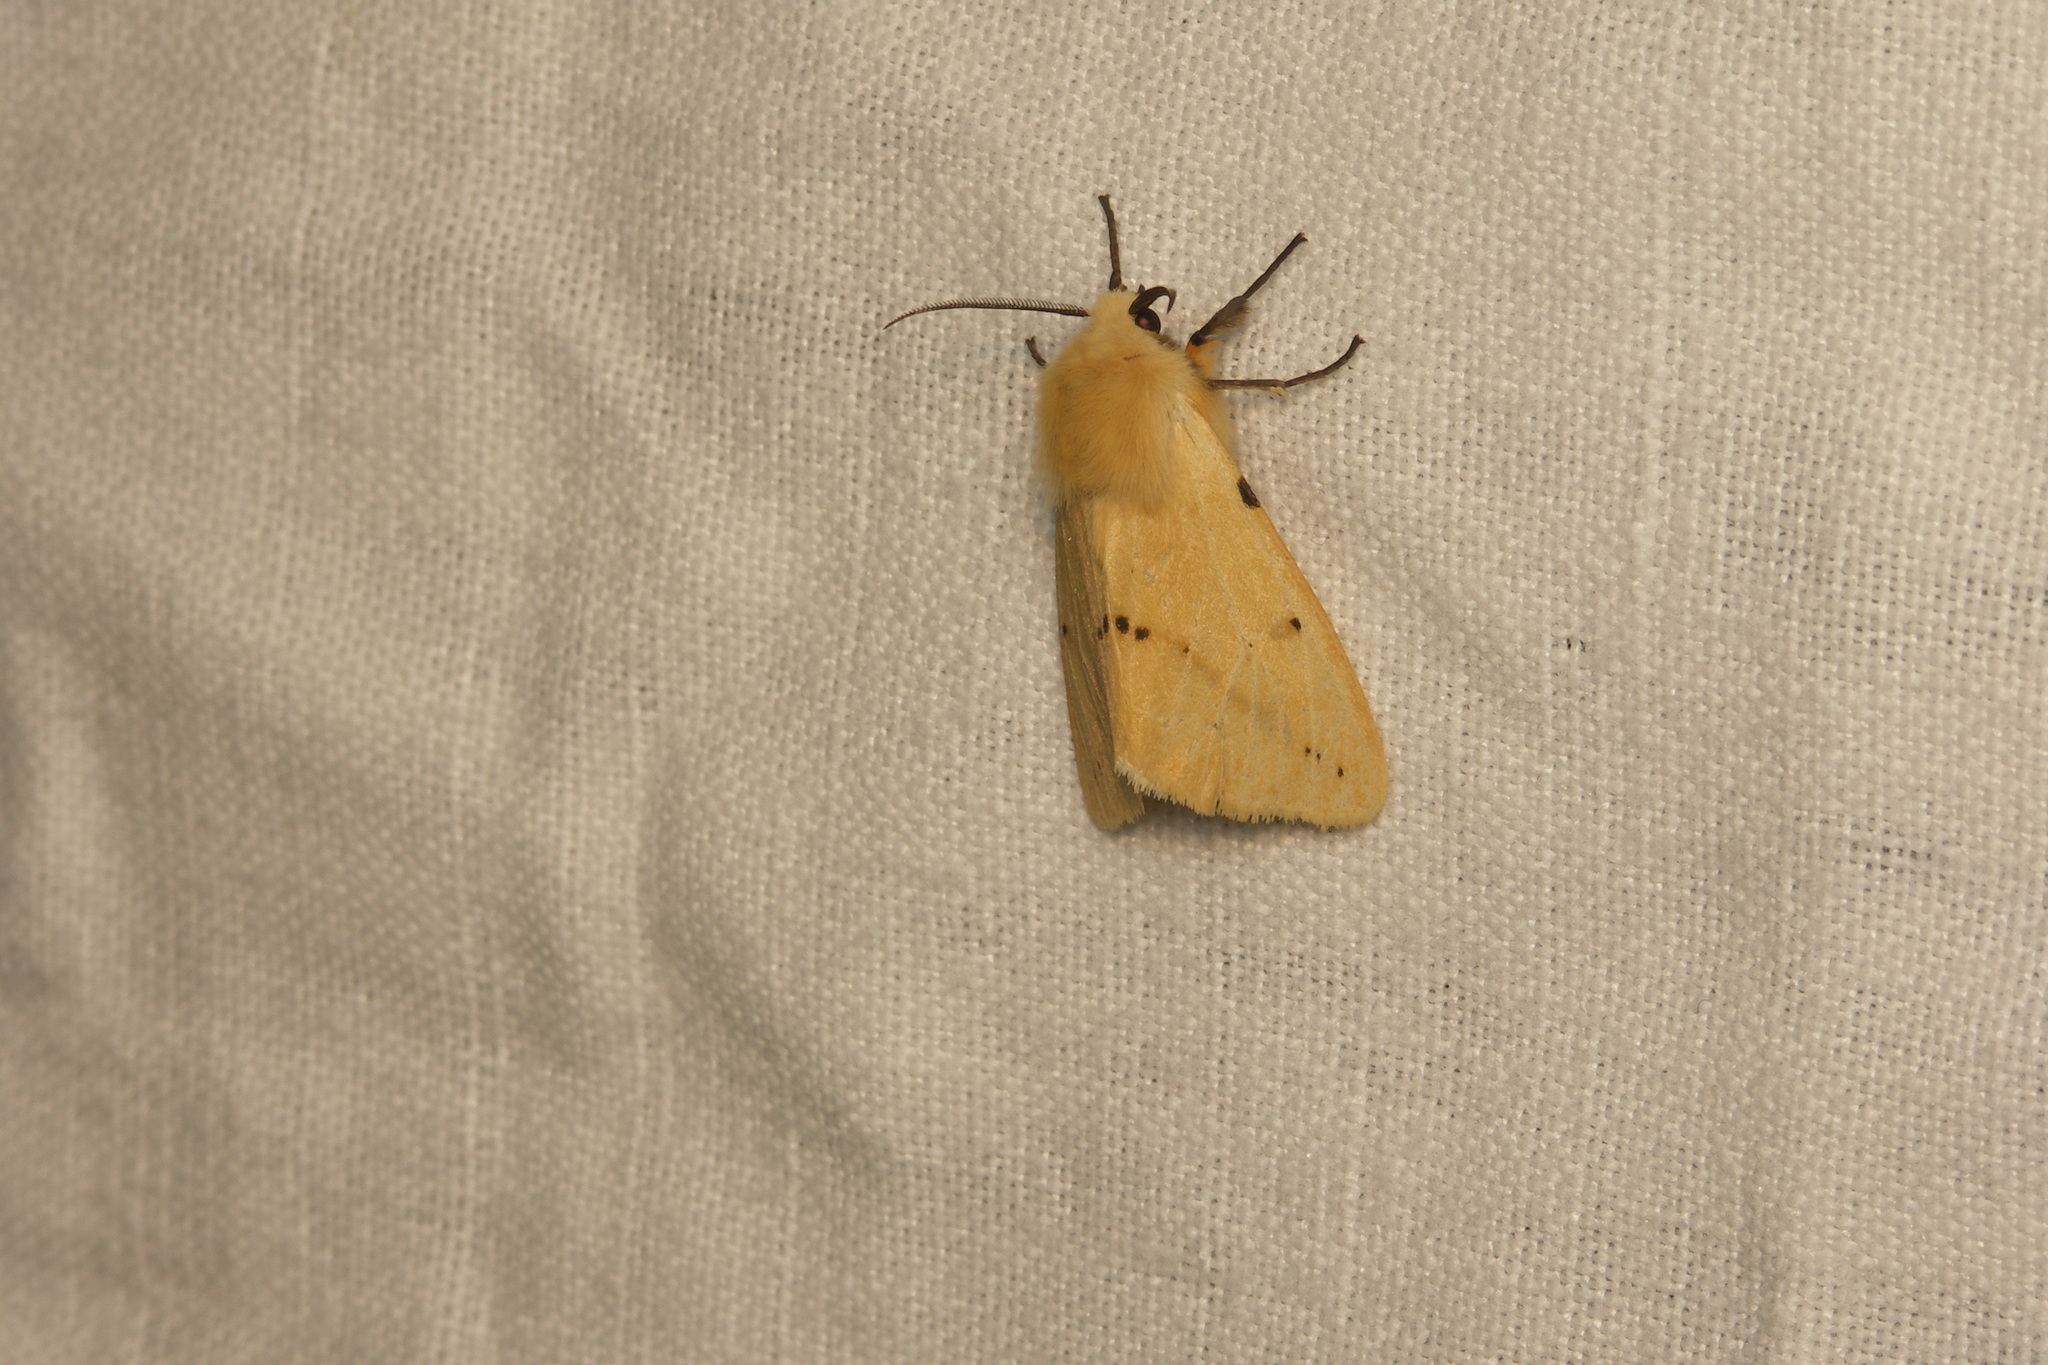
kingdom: Animalia
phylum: Arthropoda
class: Insecta
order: Lepidoptera
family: Erebidae
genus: Spilarctia
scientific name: Spilarctia lutea
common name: Buff ermine
